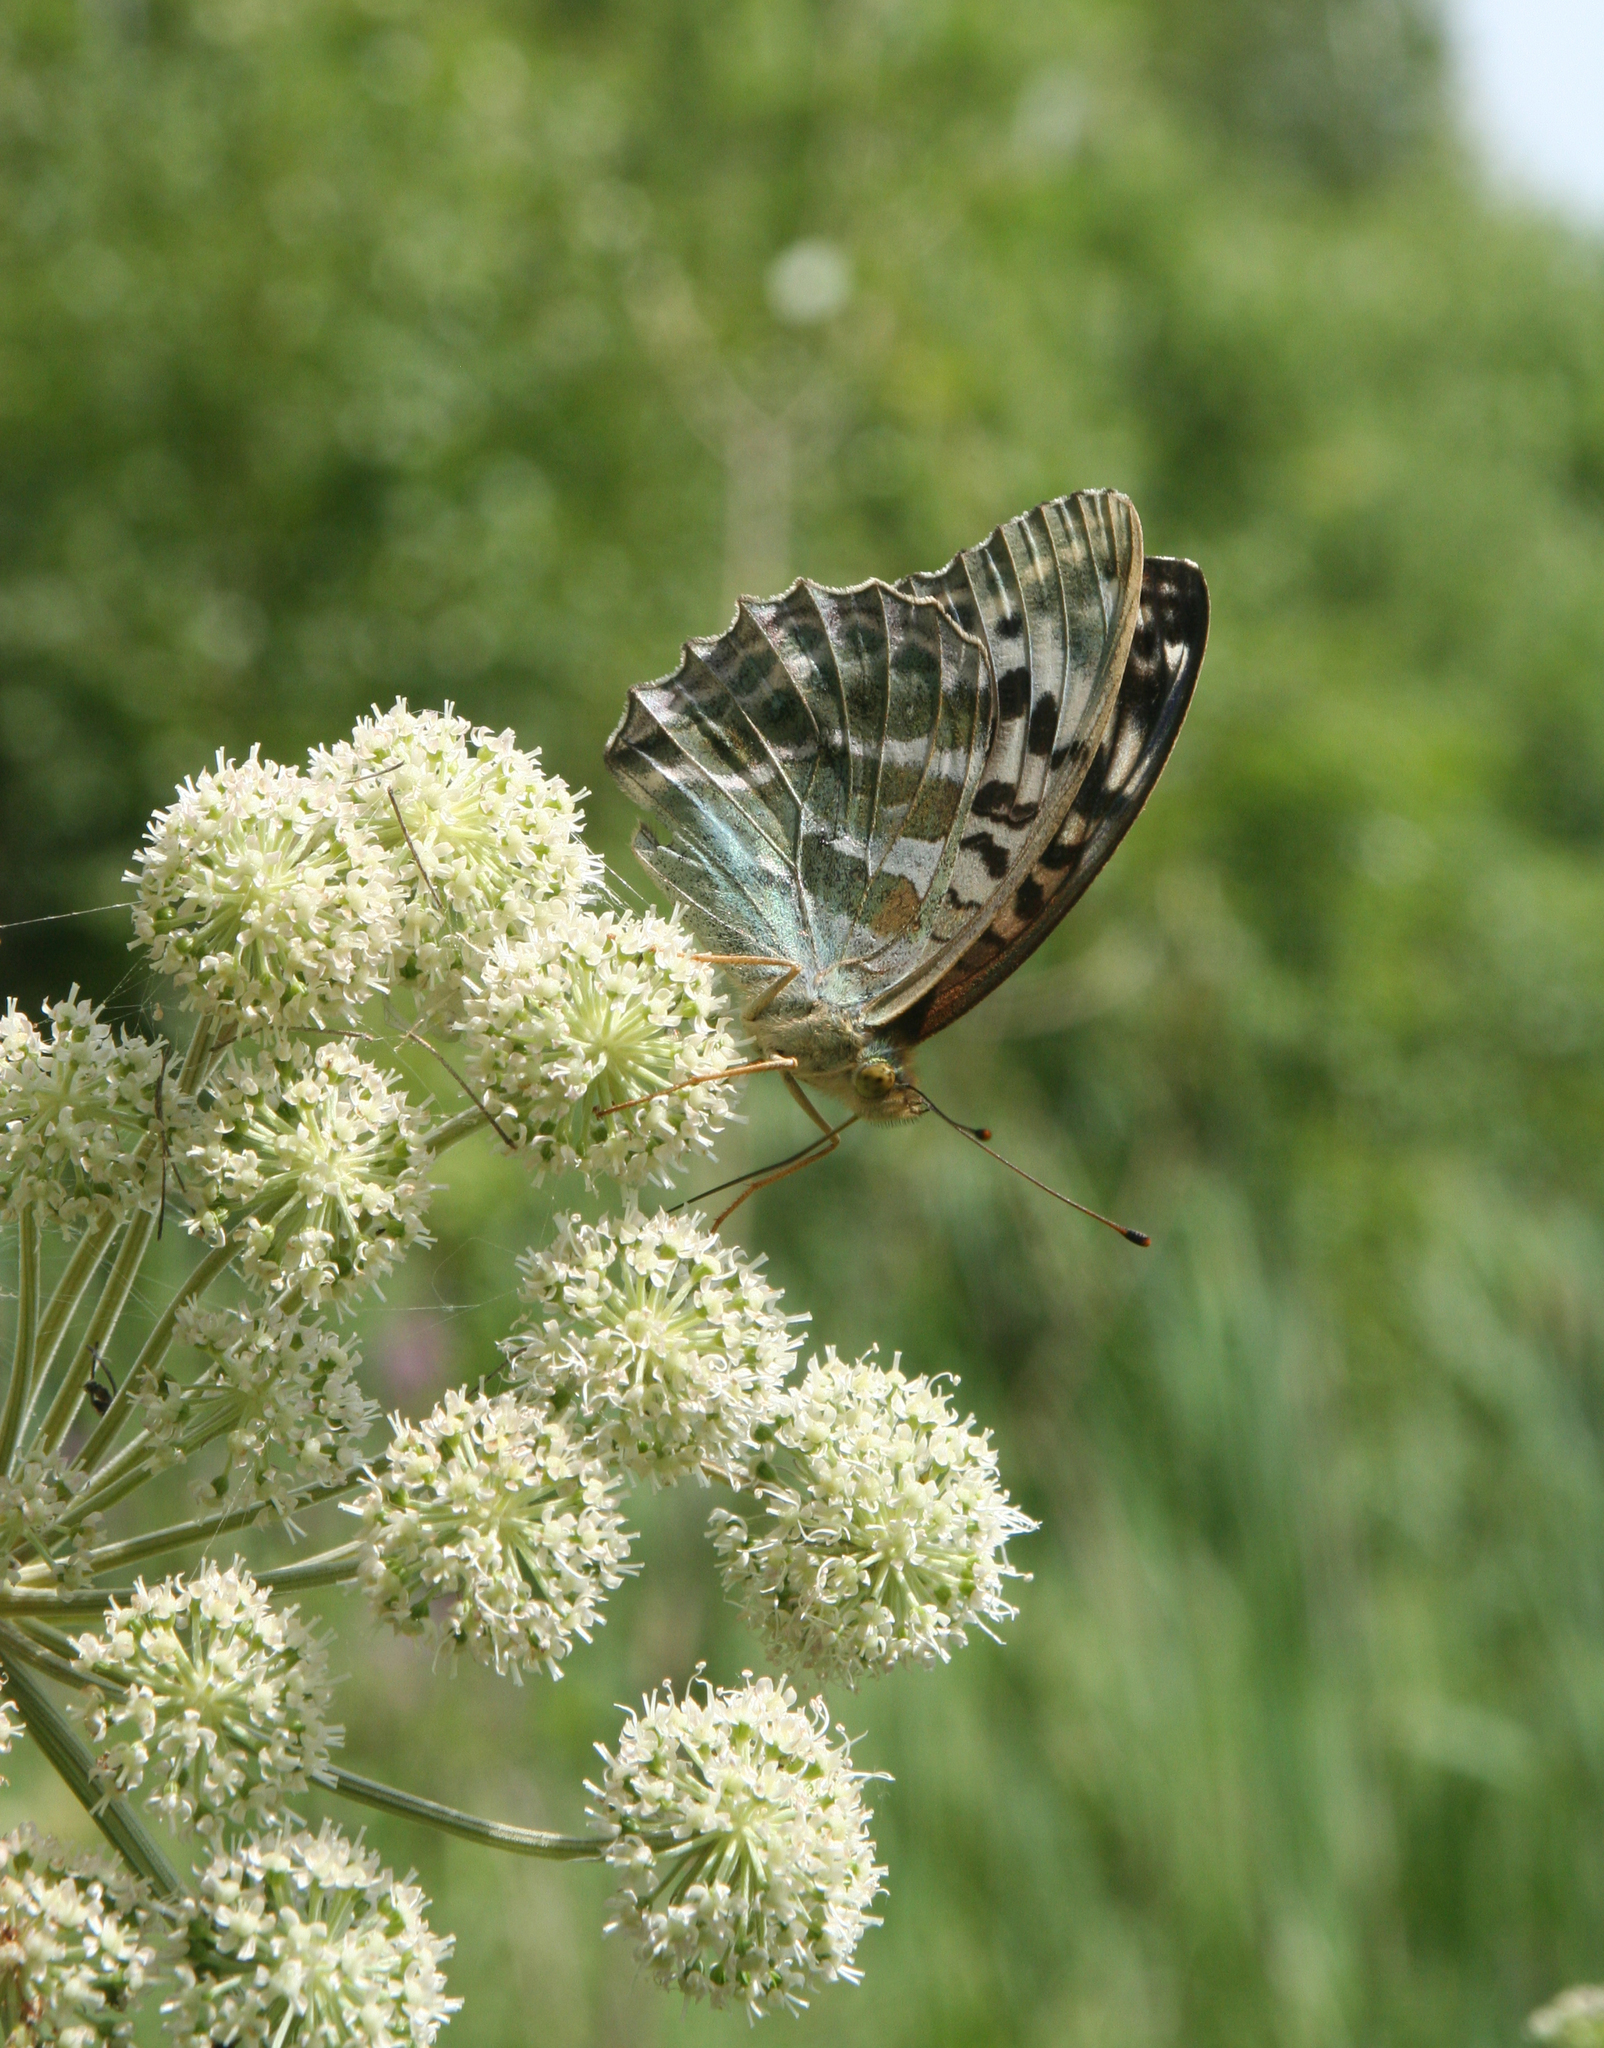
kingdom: Animalia
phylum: Arthropoda
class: Insecta
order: Lepidoptera
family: Nymphalidae
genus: Argynnis
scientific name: Argynnis paphia
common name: Silver-washed fritillary
